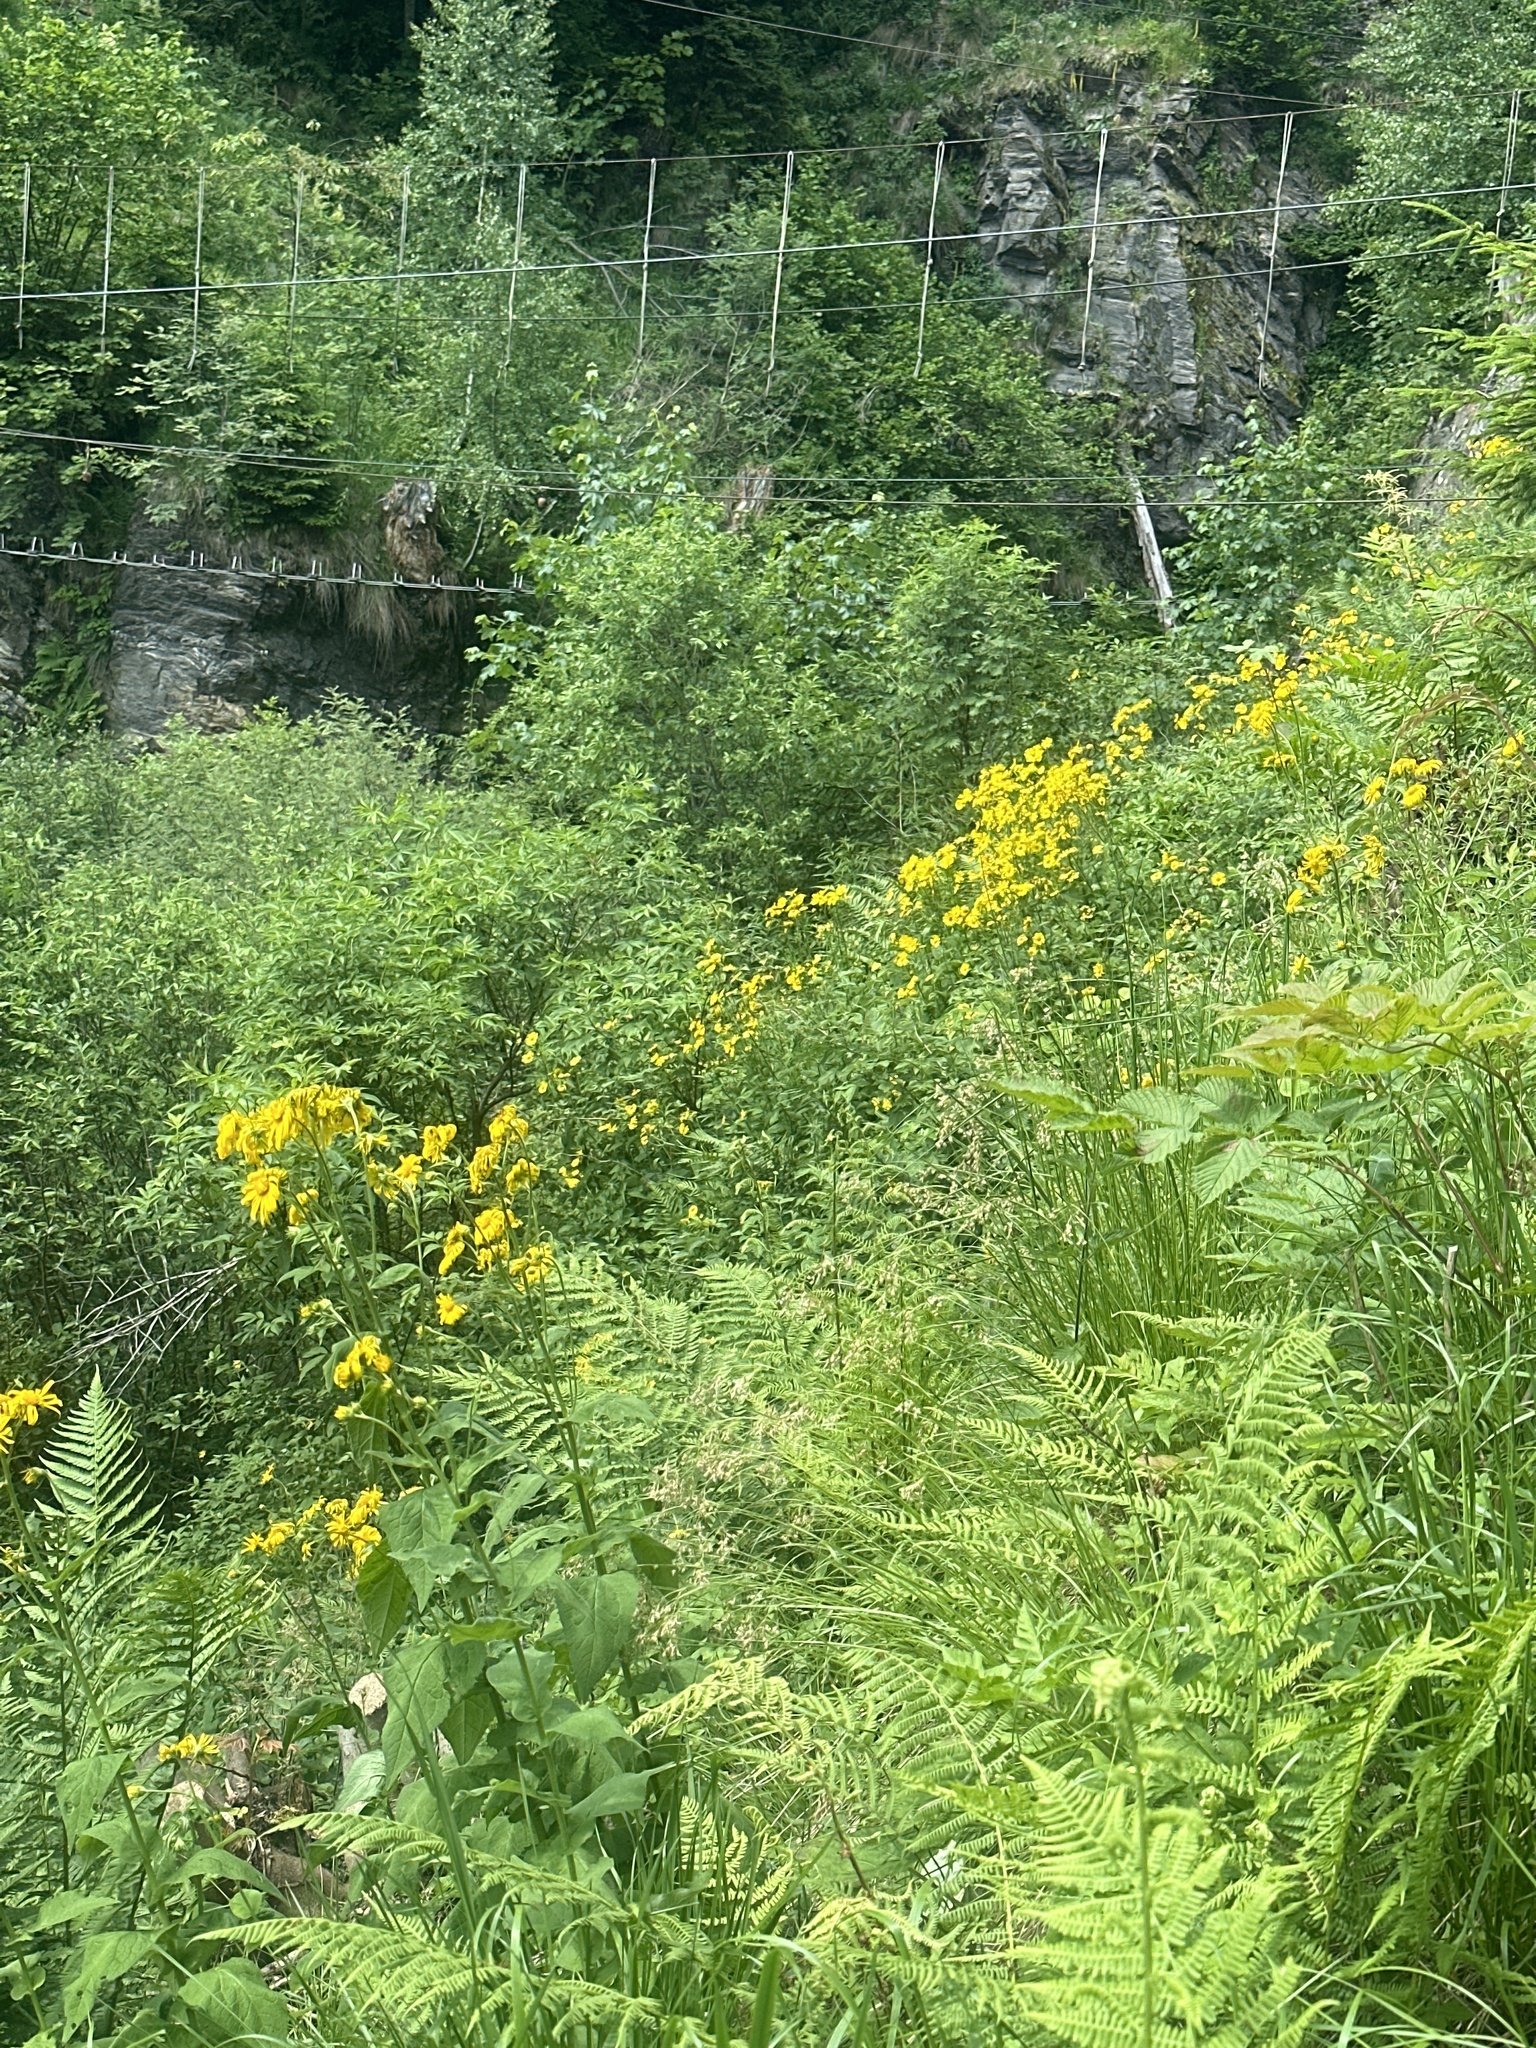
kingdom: Plantae
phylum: Tracheophyta
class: Magnoliopsida
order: Asterales
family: Asteraceae
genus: Doronicum
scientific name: Doronicum austriacum
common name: Austrian leopard's-bane
